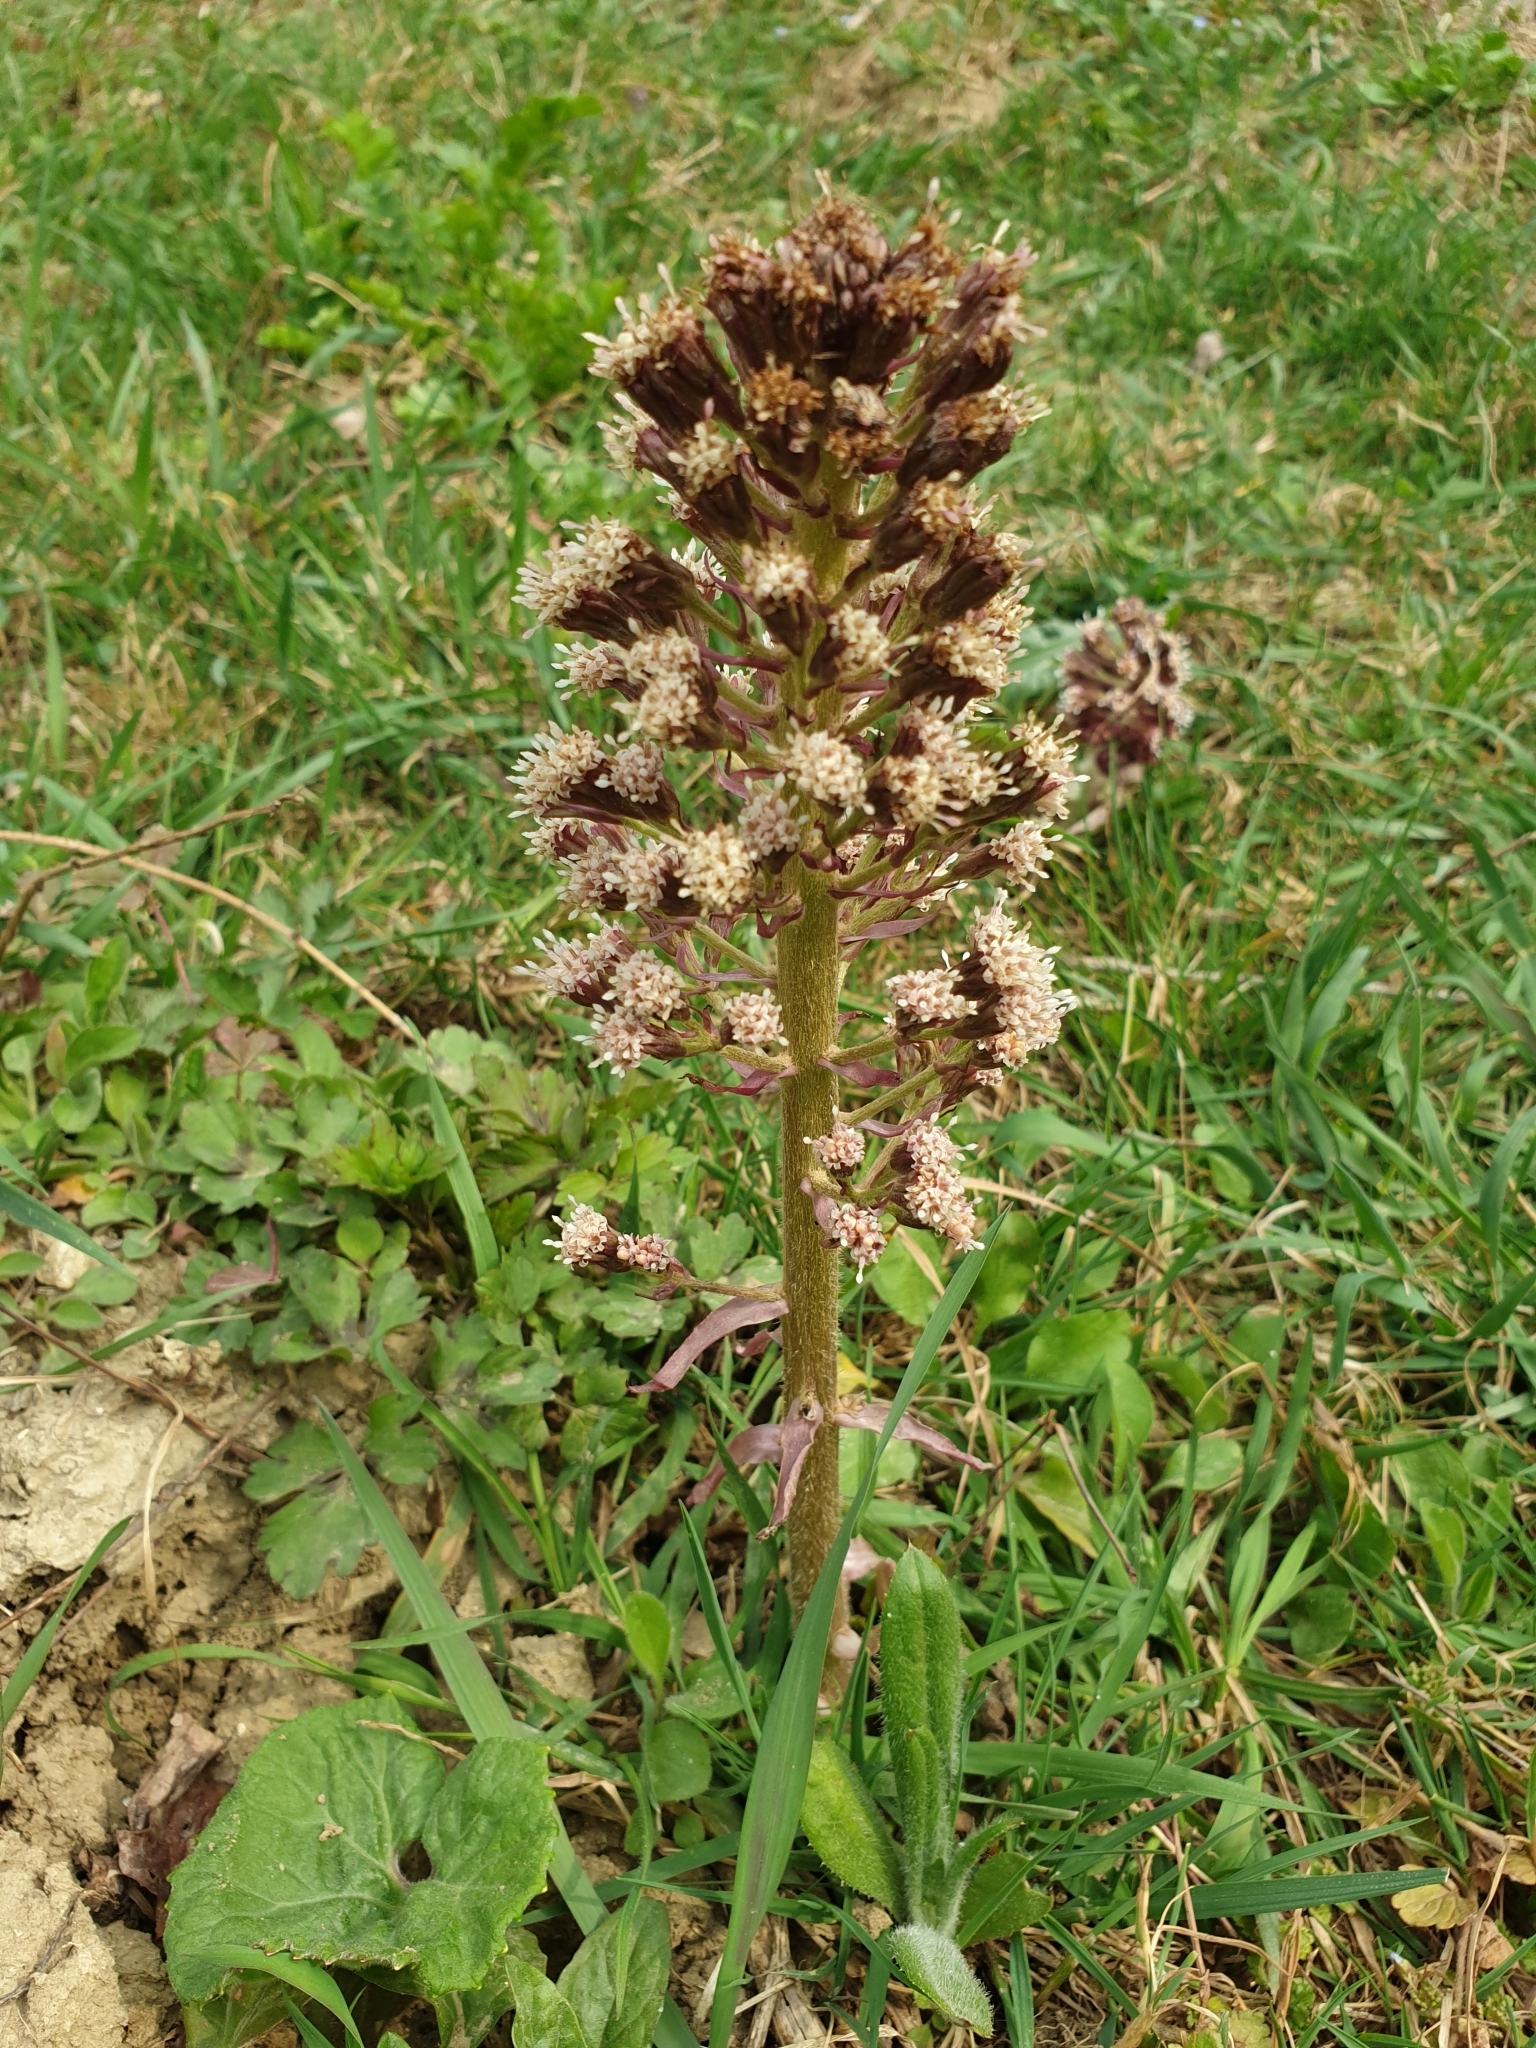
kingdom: Plantae
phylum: Tracheophyta
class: Magnoliopsida
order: Asterales
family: Asteraceae
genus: Petasites
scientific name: Petasites hybridus
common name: Butterbur
